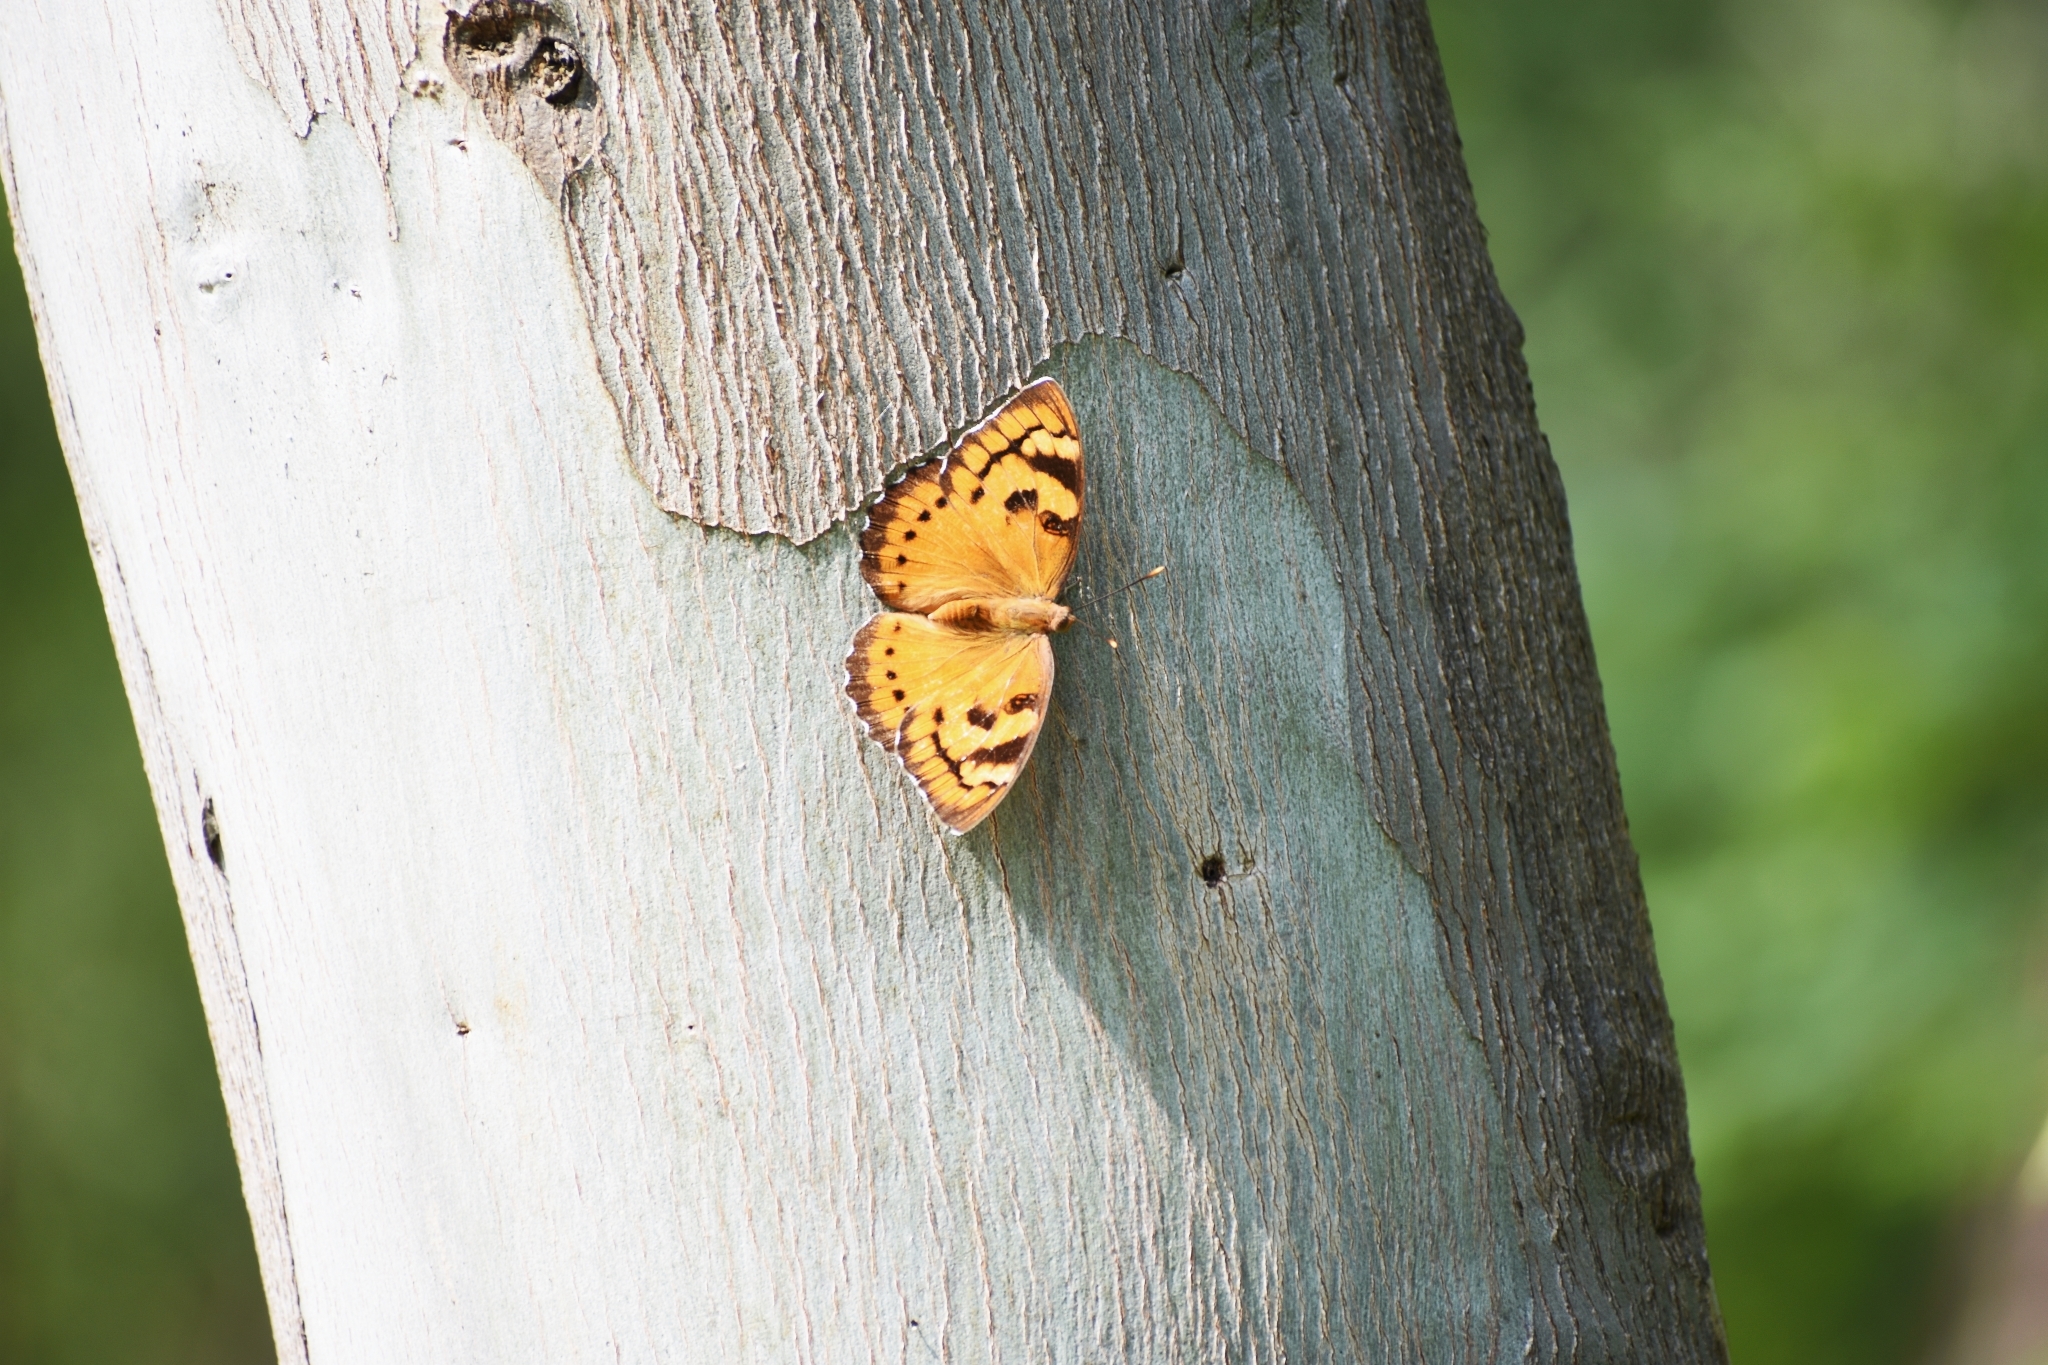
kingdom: Animalia
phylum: Arthropoda
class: Insecta
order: Lepidoptera
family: Nymphalidae
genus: Euthalia
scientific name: Euthalia nais
